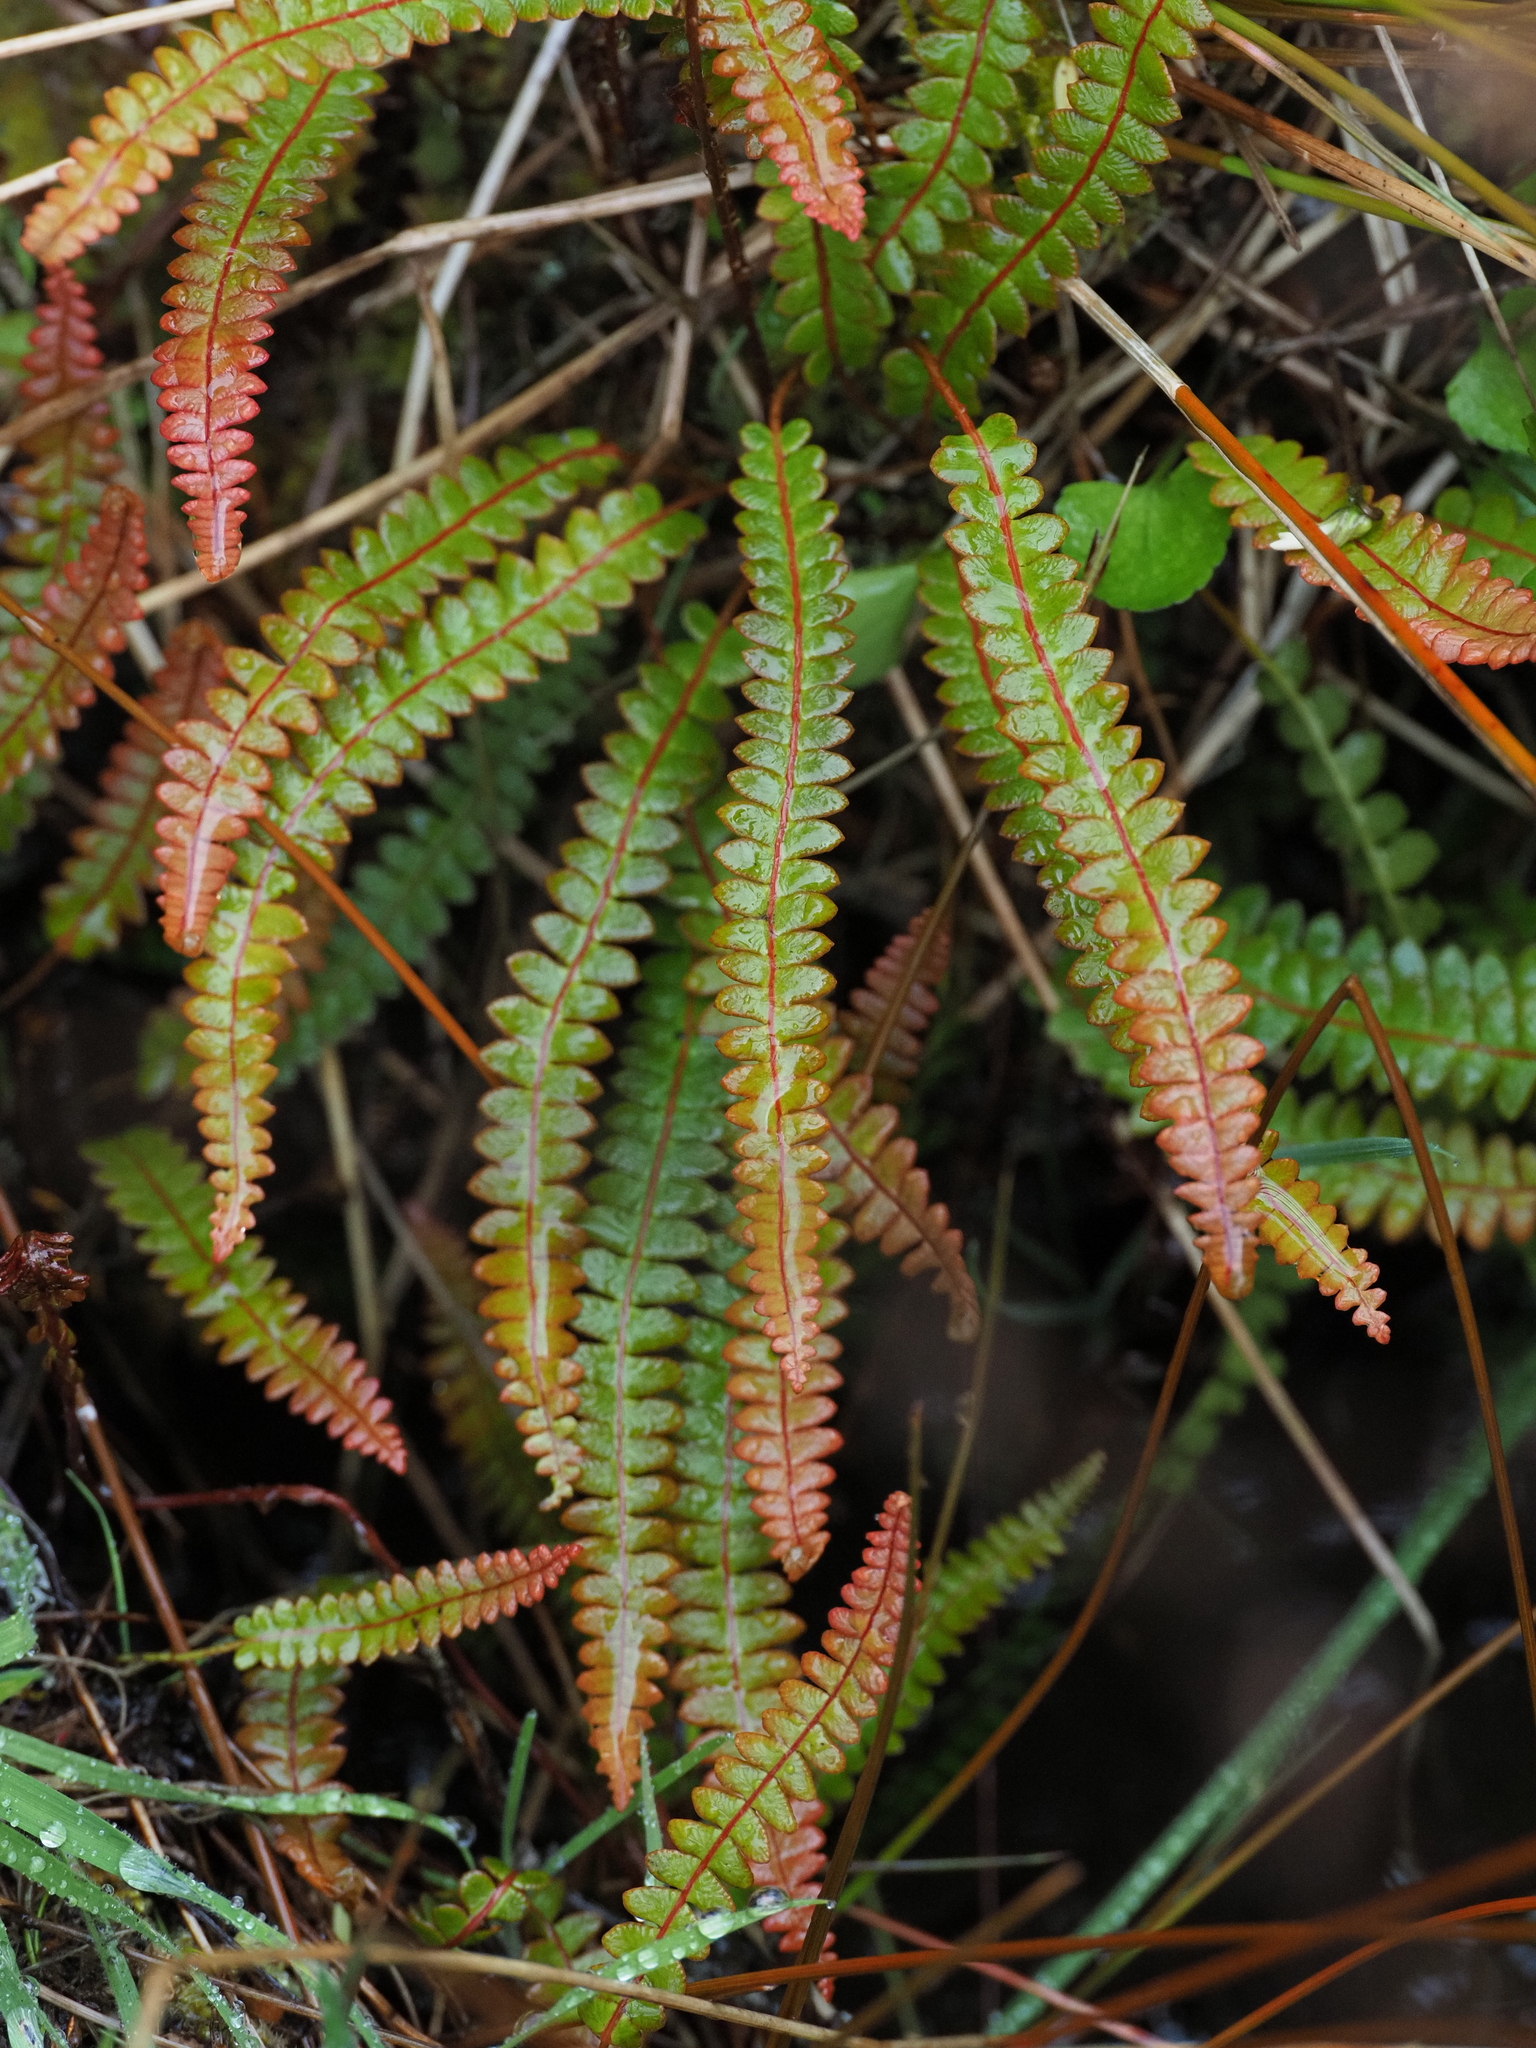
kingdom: Plantae
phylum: Tracheophyta
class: Polypodiopsida
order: Polypodiales
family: Blechnaceae
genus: Austroblechnum
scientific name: Austroblechnum penna-marina
